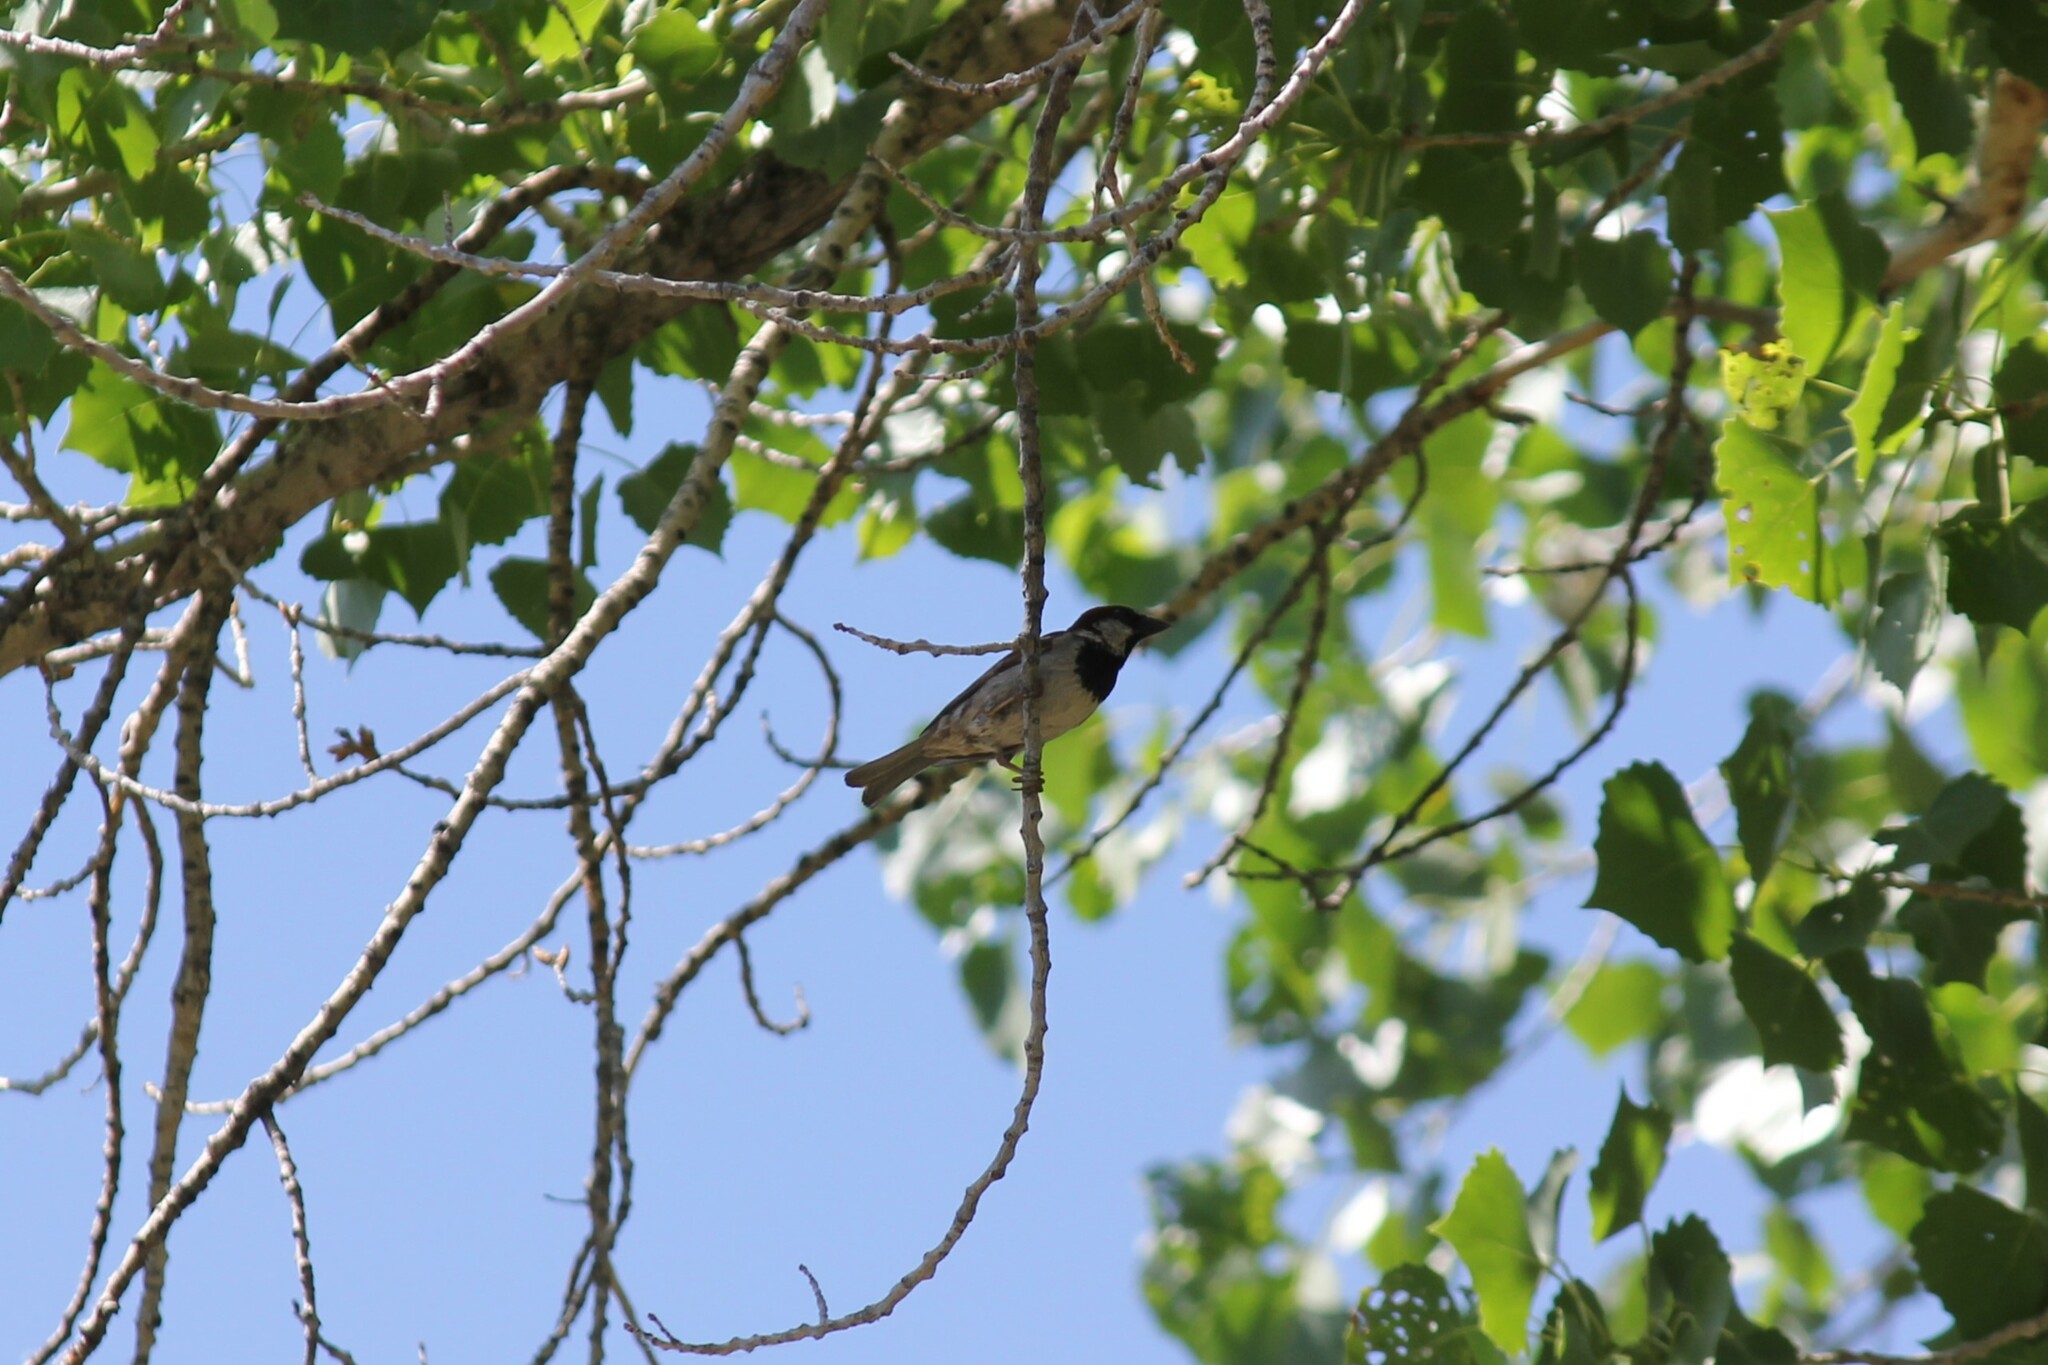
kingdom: Animalia
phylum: Chordata
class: Aves
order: Passeriformes
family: Passeridae
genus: Passer
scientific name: Passer domesticus
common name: House sparrow
